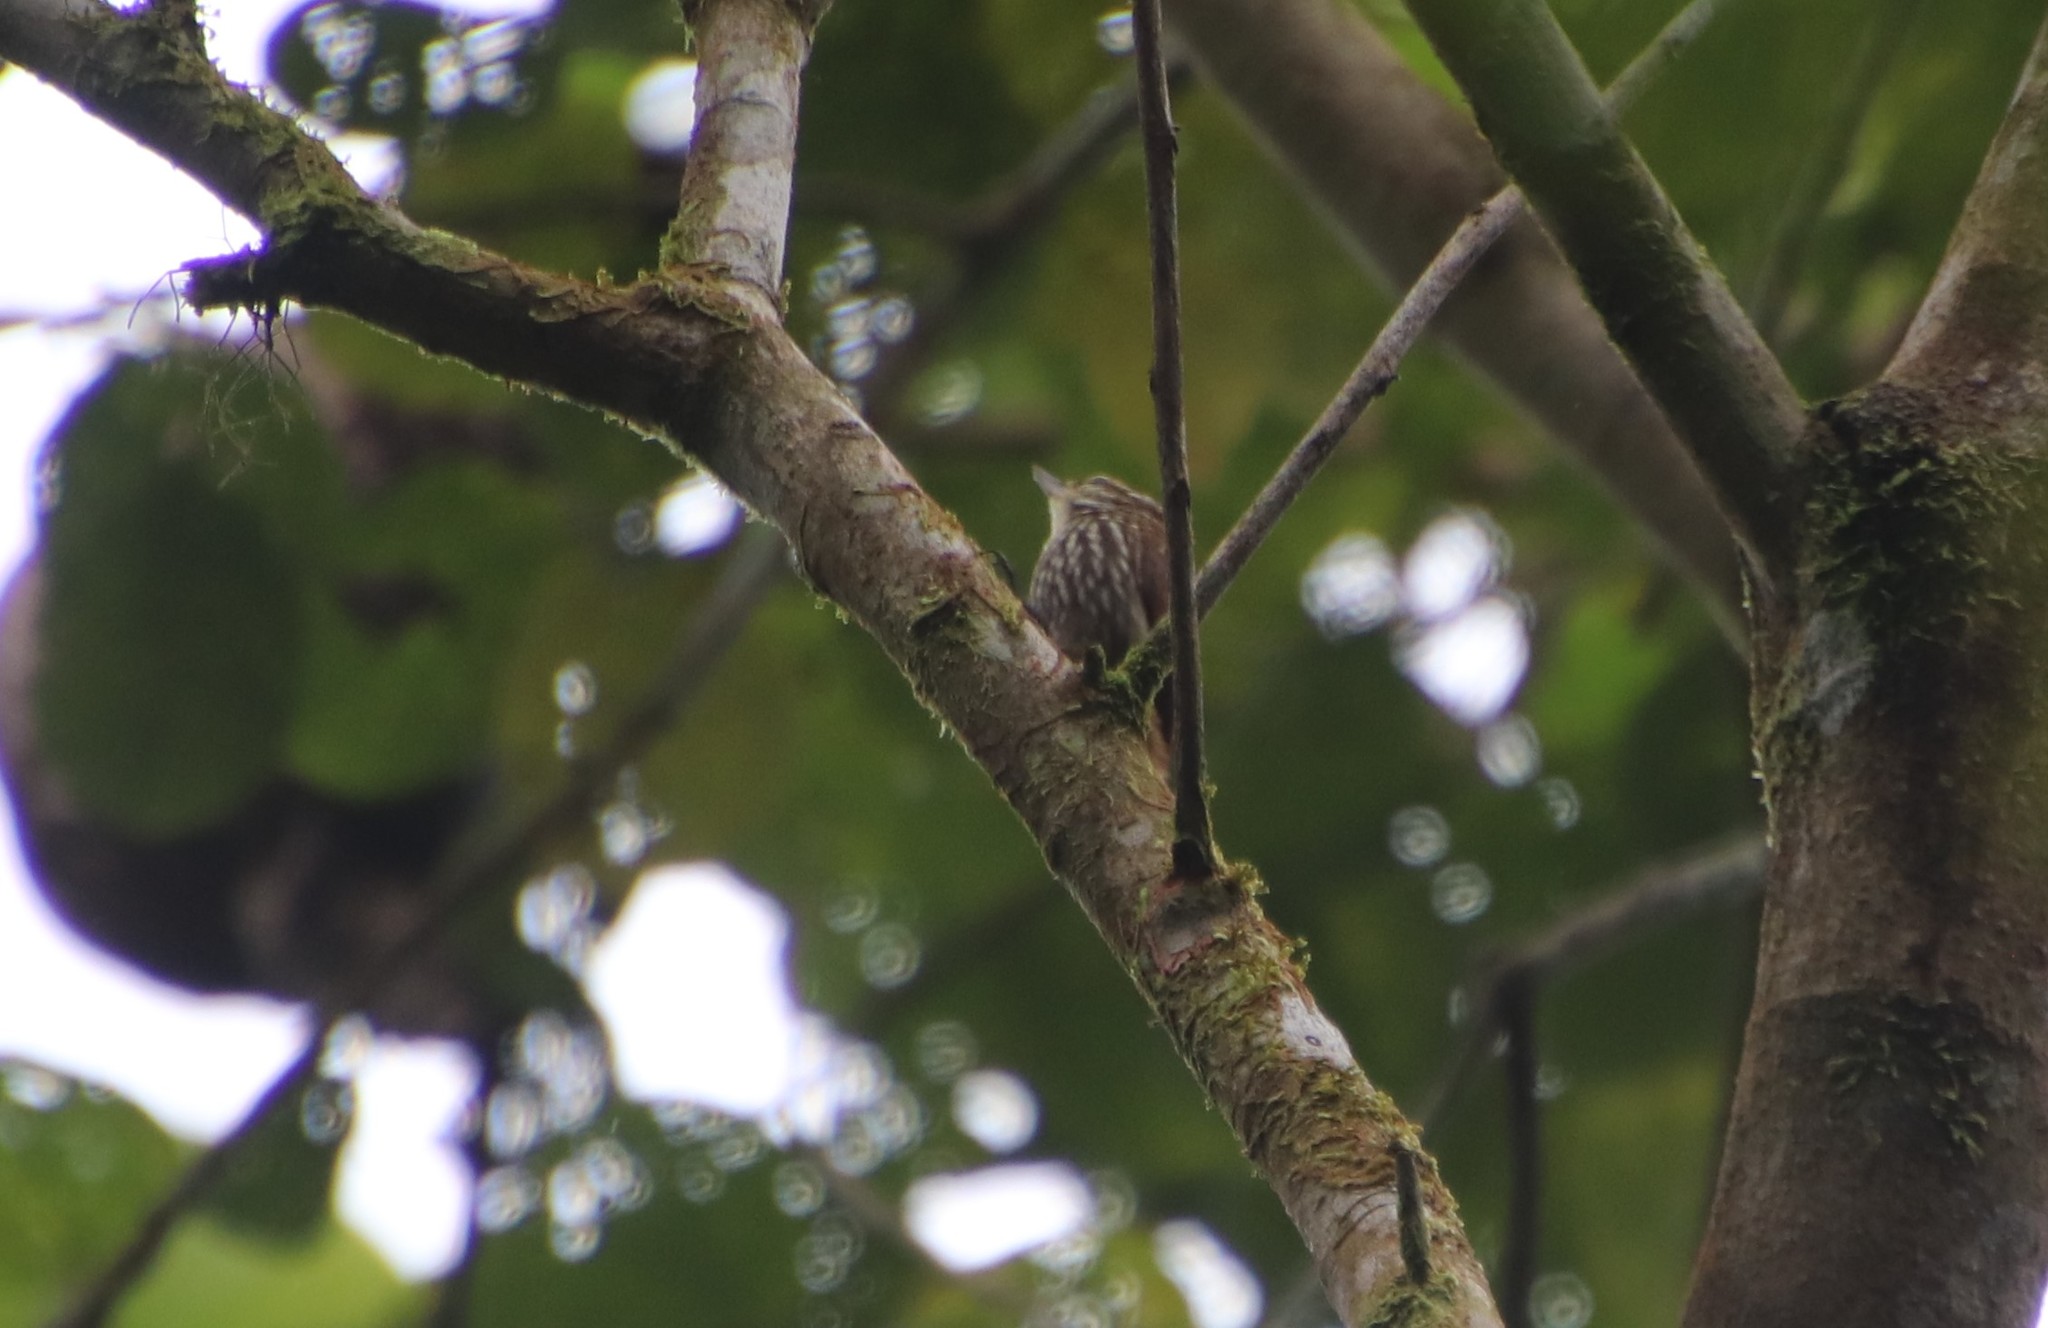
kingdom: Animalia
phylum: Chordata
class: Aves
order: Passeriformes
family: Furnariidae
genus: Xenops
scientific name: Xenops rutilans
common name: Streaked xenops
